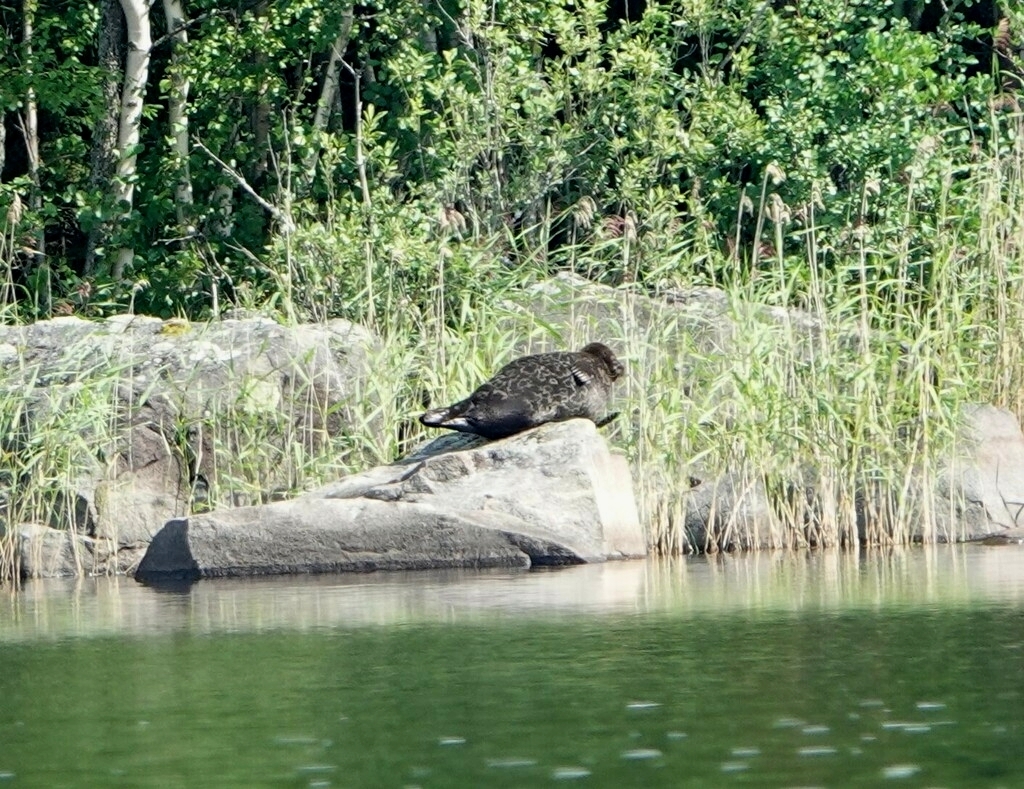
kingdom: Animalia
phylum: Chordata
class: Mammalia
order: Carnivora
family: Phocidae
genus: Pusa
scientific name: Pusa hispida
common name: Ringed seal
